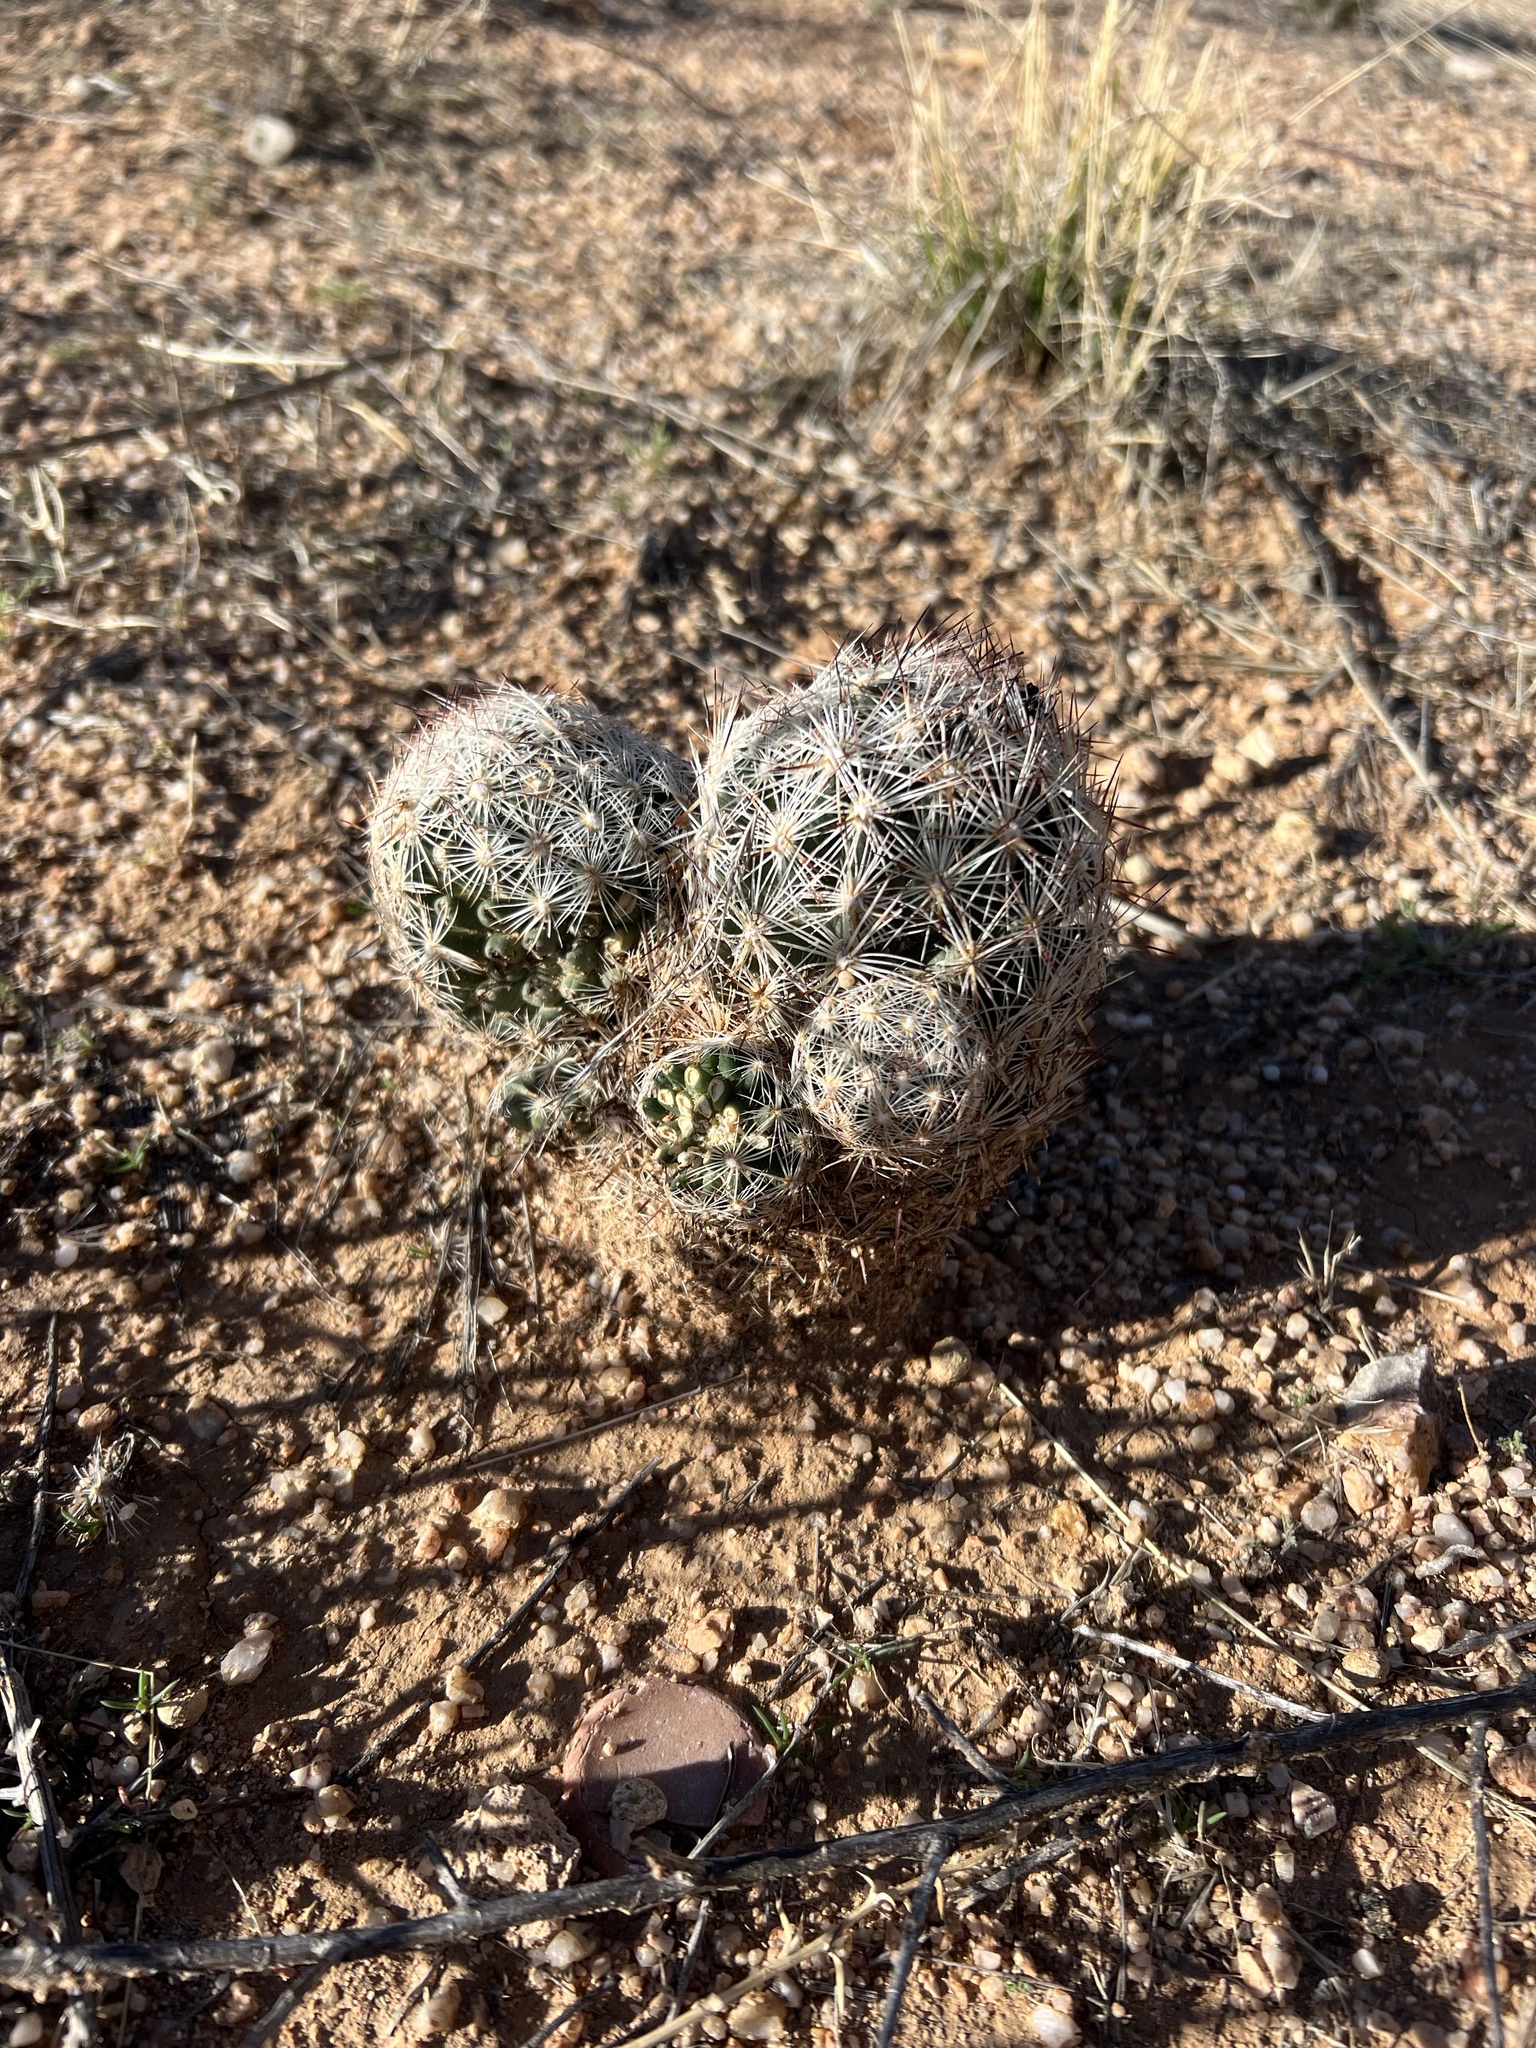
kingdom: Plantae
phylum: Tracheophyta
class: Magnoliopsida
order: Caryophyllales
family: Cactaceae
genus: Pelecyphora
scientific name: Pelecyphora vivipara
